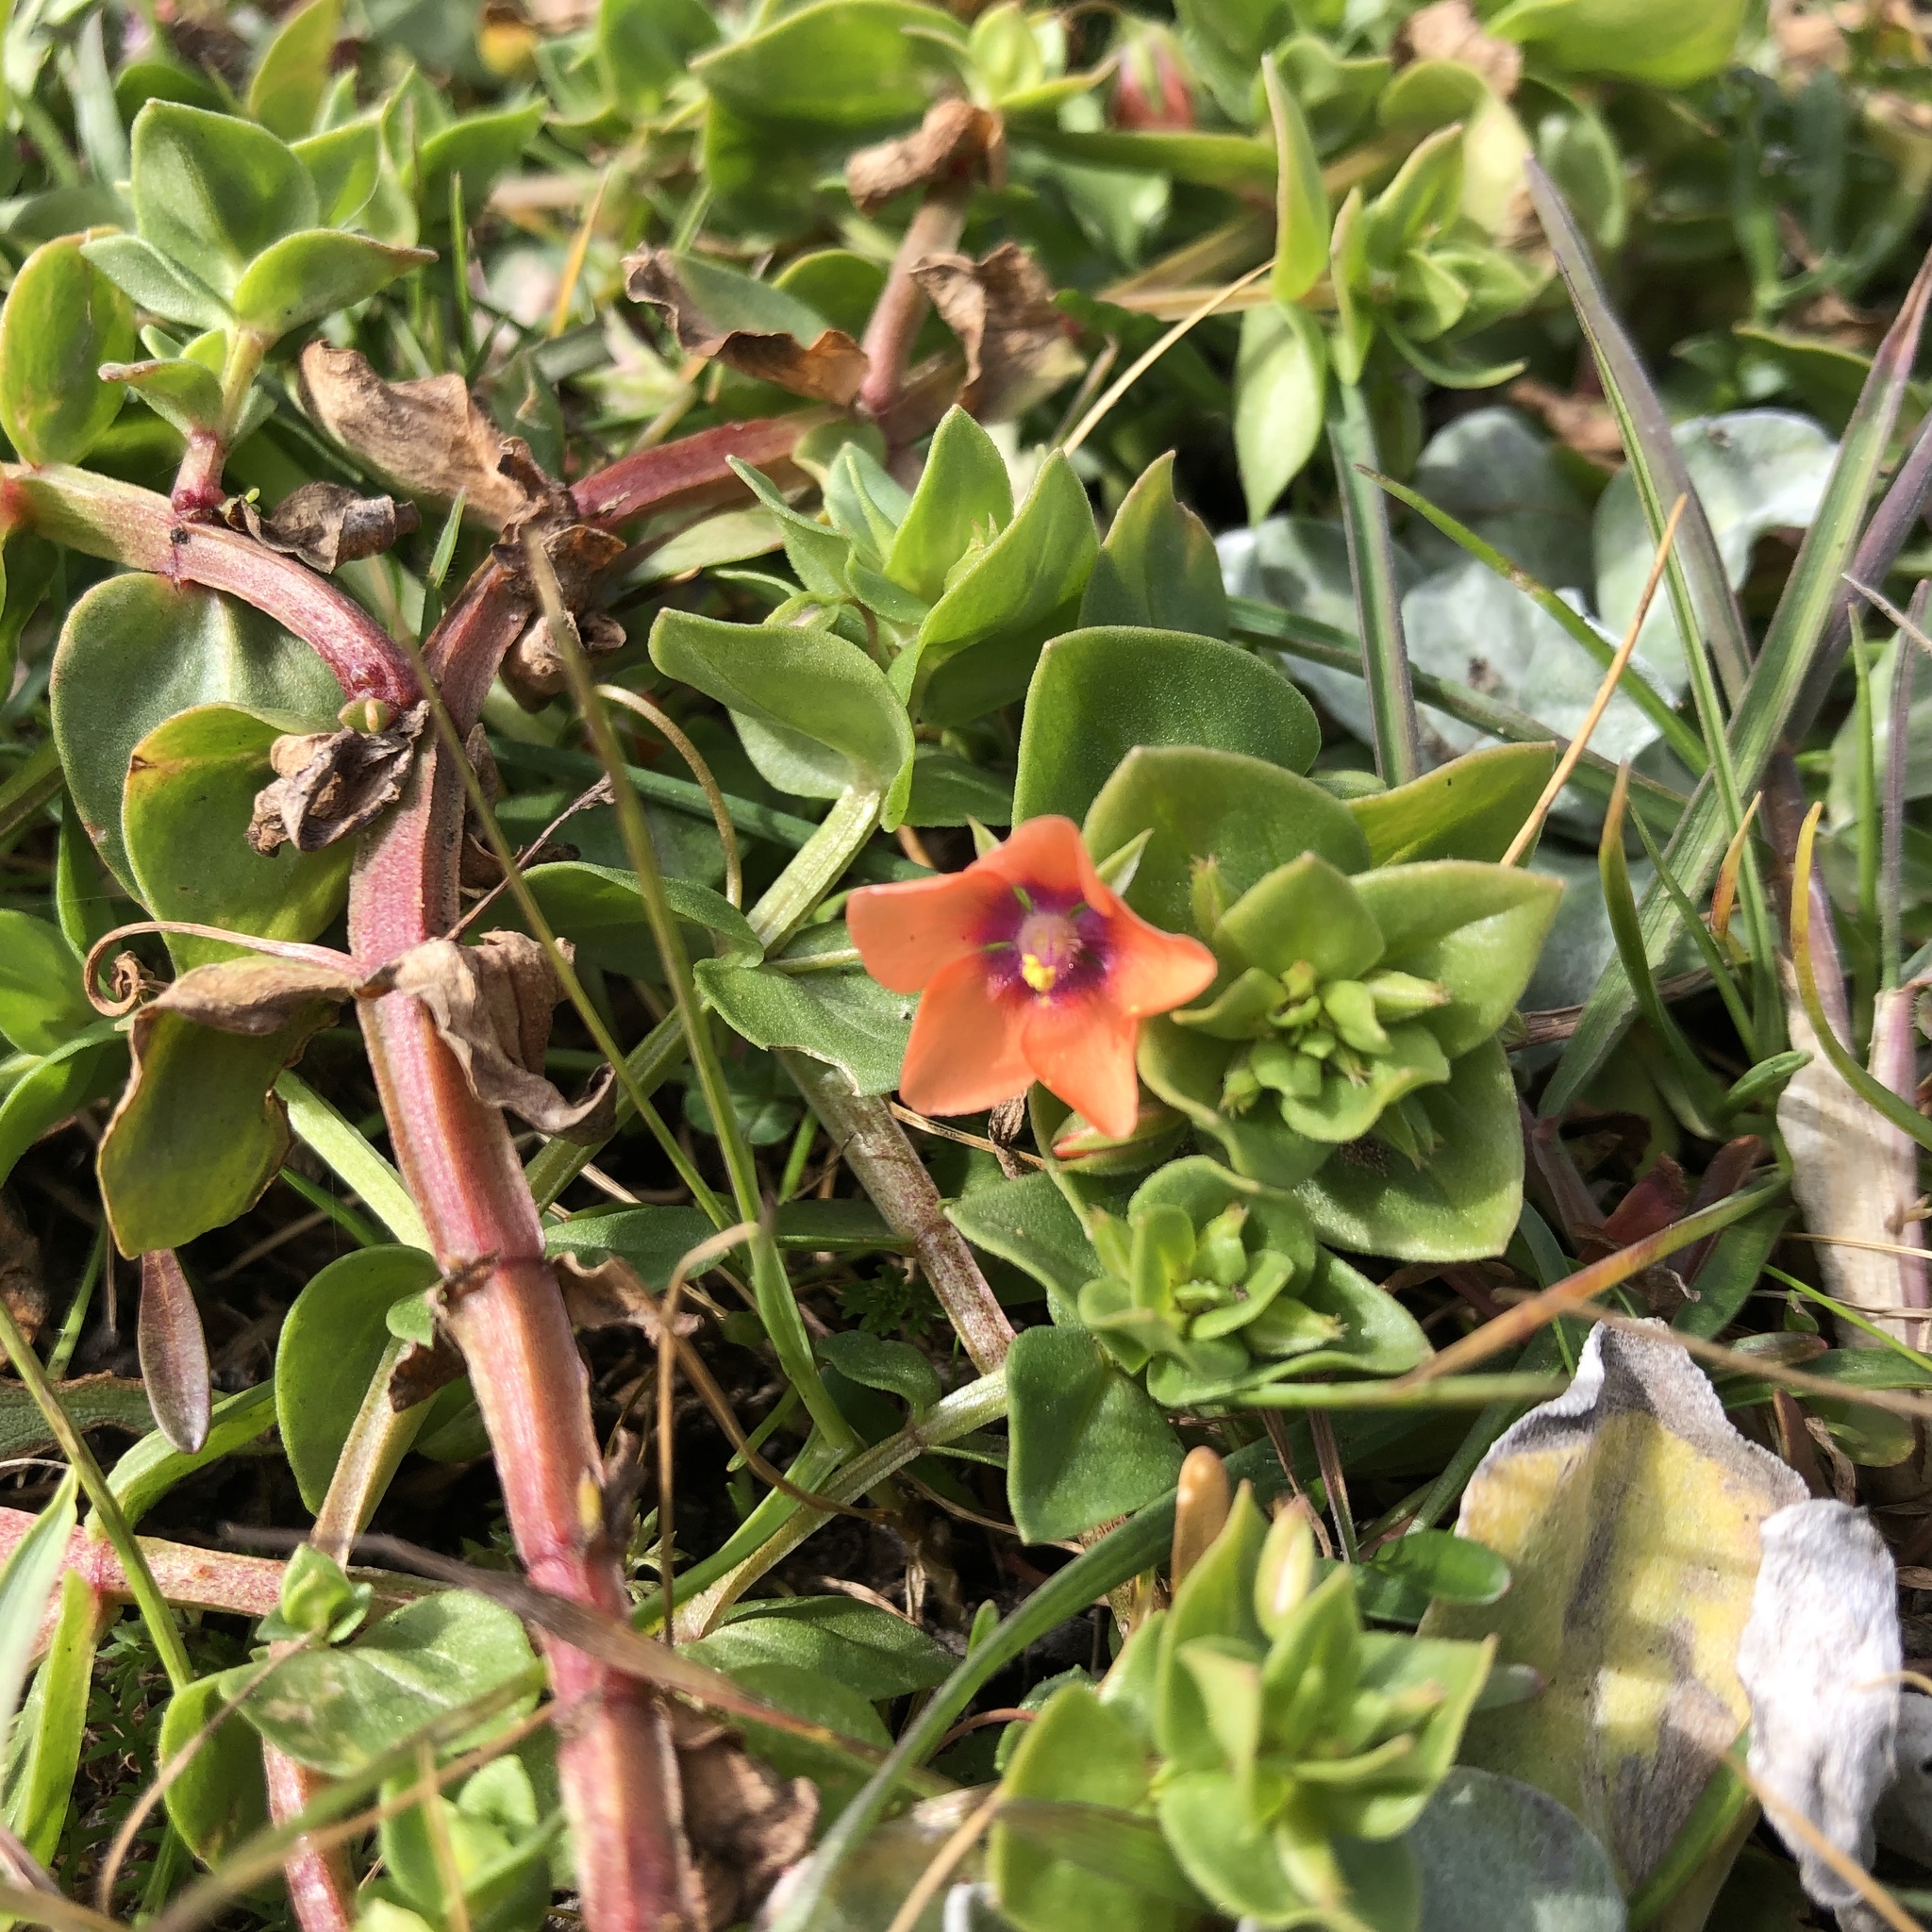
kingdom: Plantae
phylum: Tracheophyta
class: Magnoliopsida
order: Ericales
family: Primulaceae
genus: Lysimachia
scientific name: Lysimachia arvensis
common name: Scarlet pimpernel
